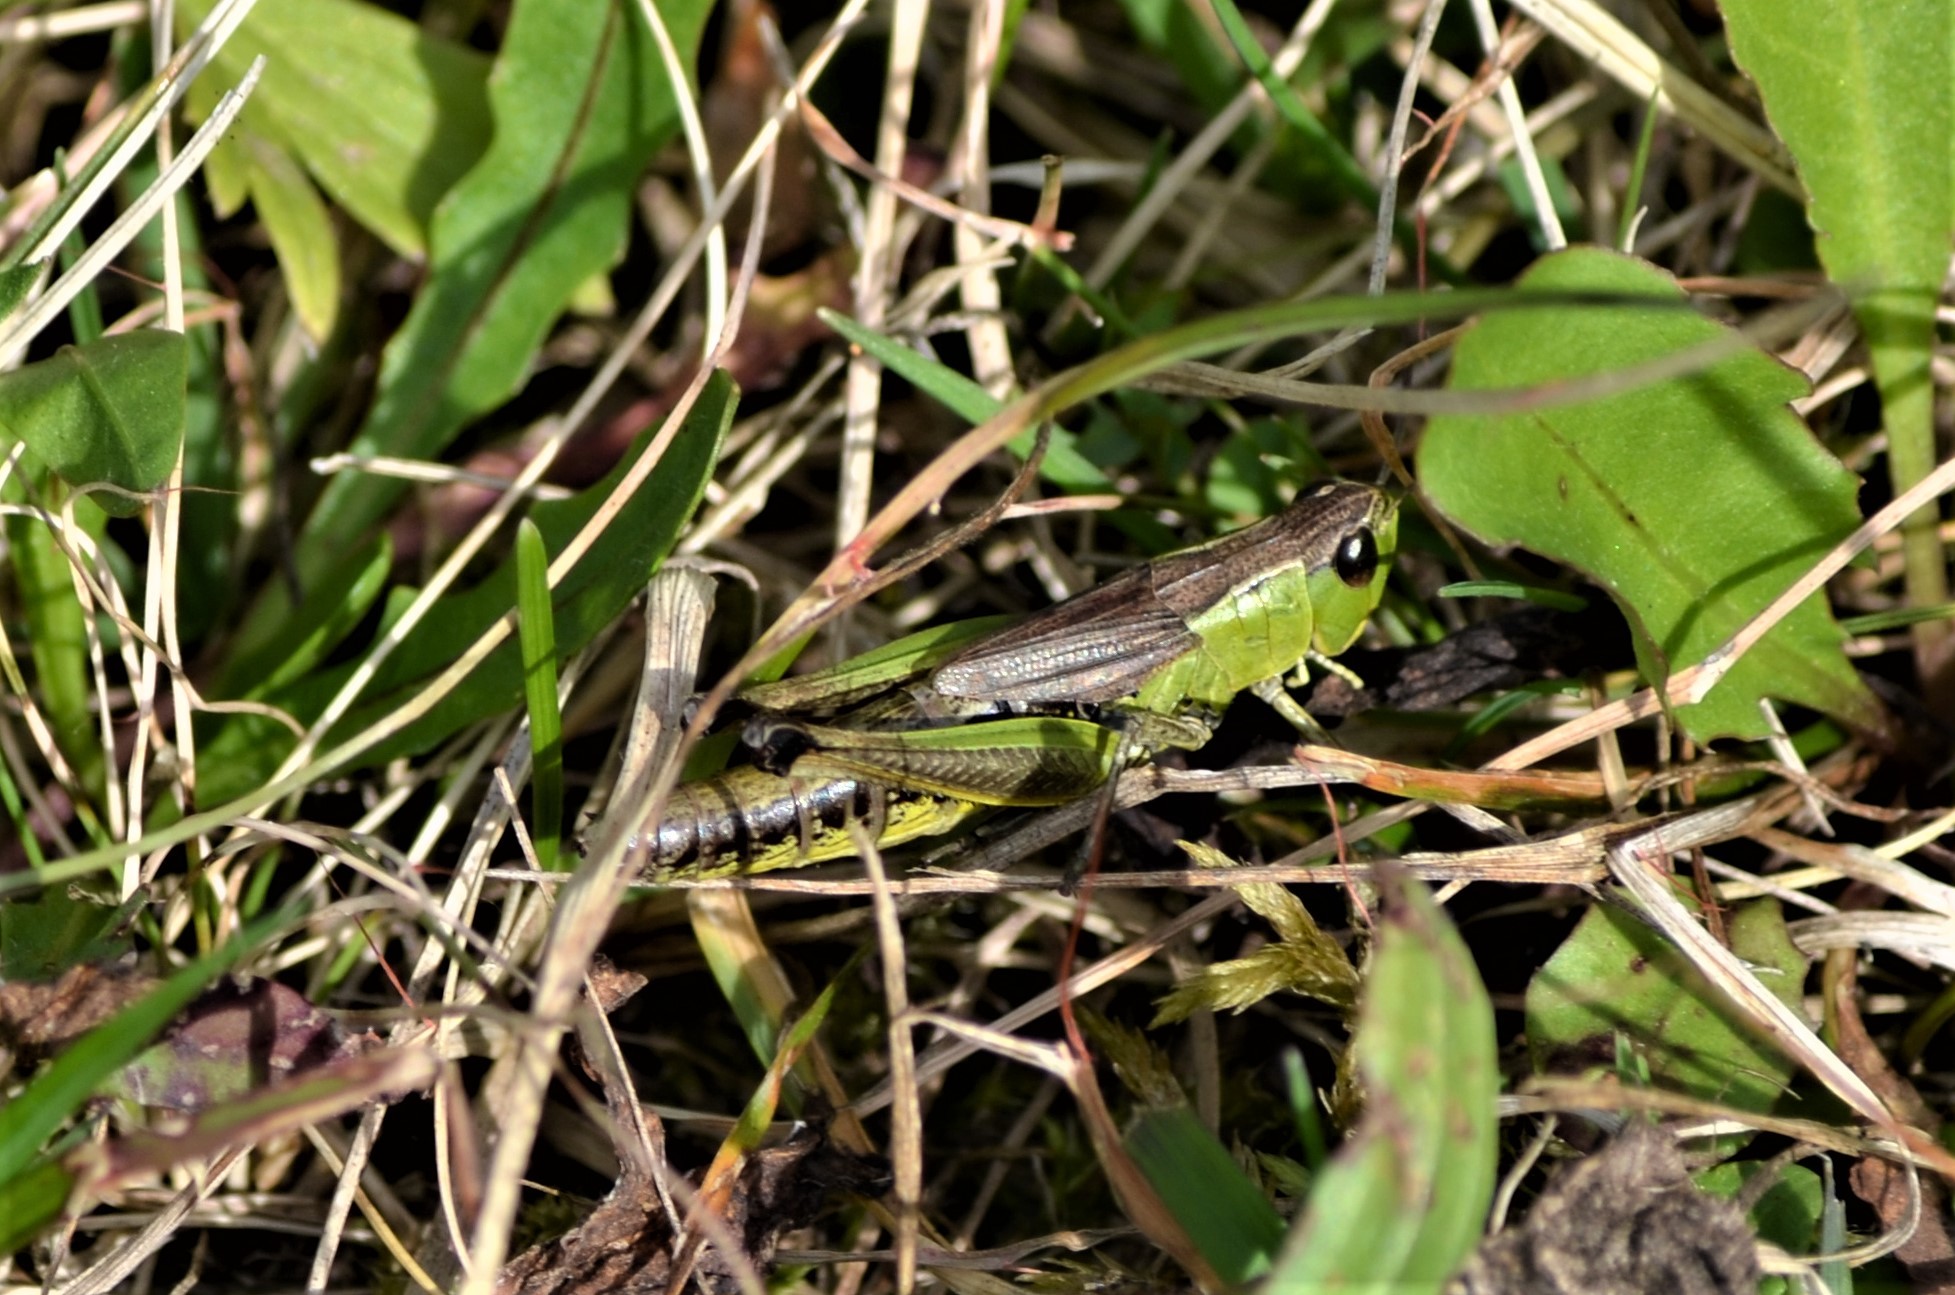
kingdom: Animalia
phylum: Arthropoda
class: Insecta
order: Orthoptera
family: Acrididae
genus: Pseudochorthippus
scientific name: Pseudochorthippus parallelus
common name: Meadow grasshopper
